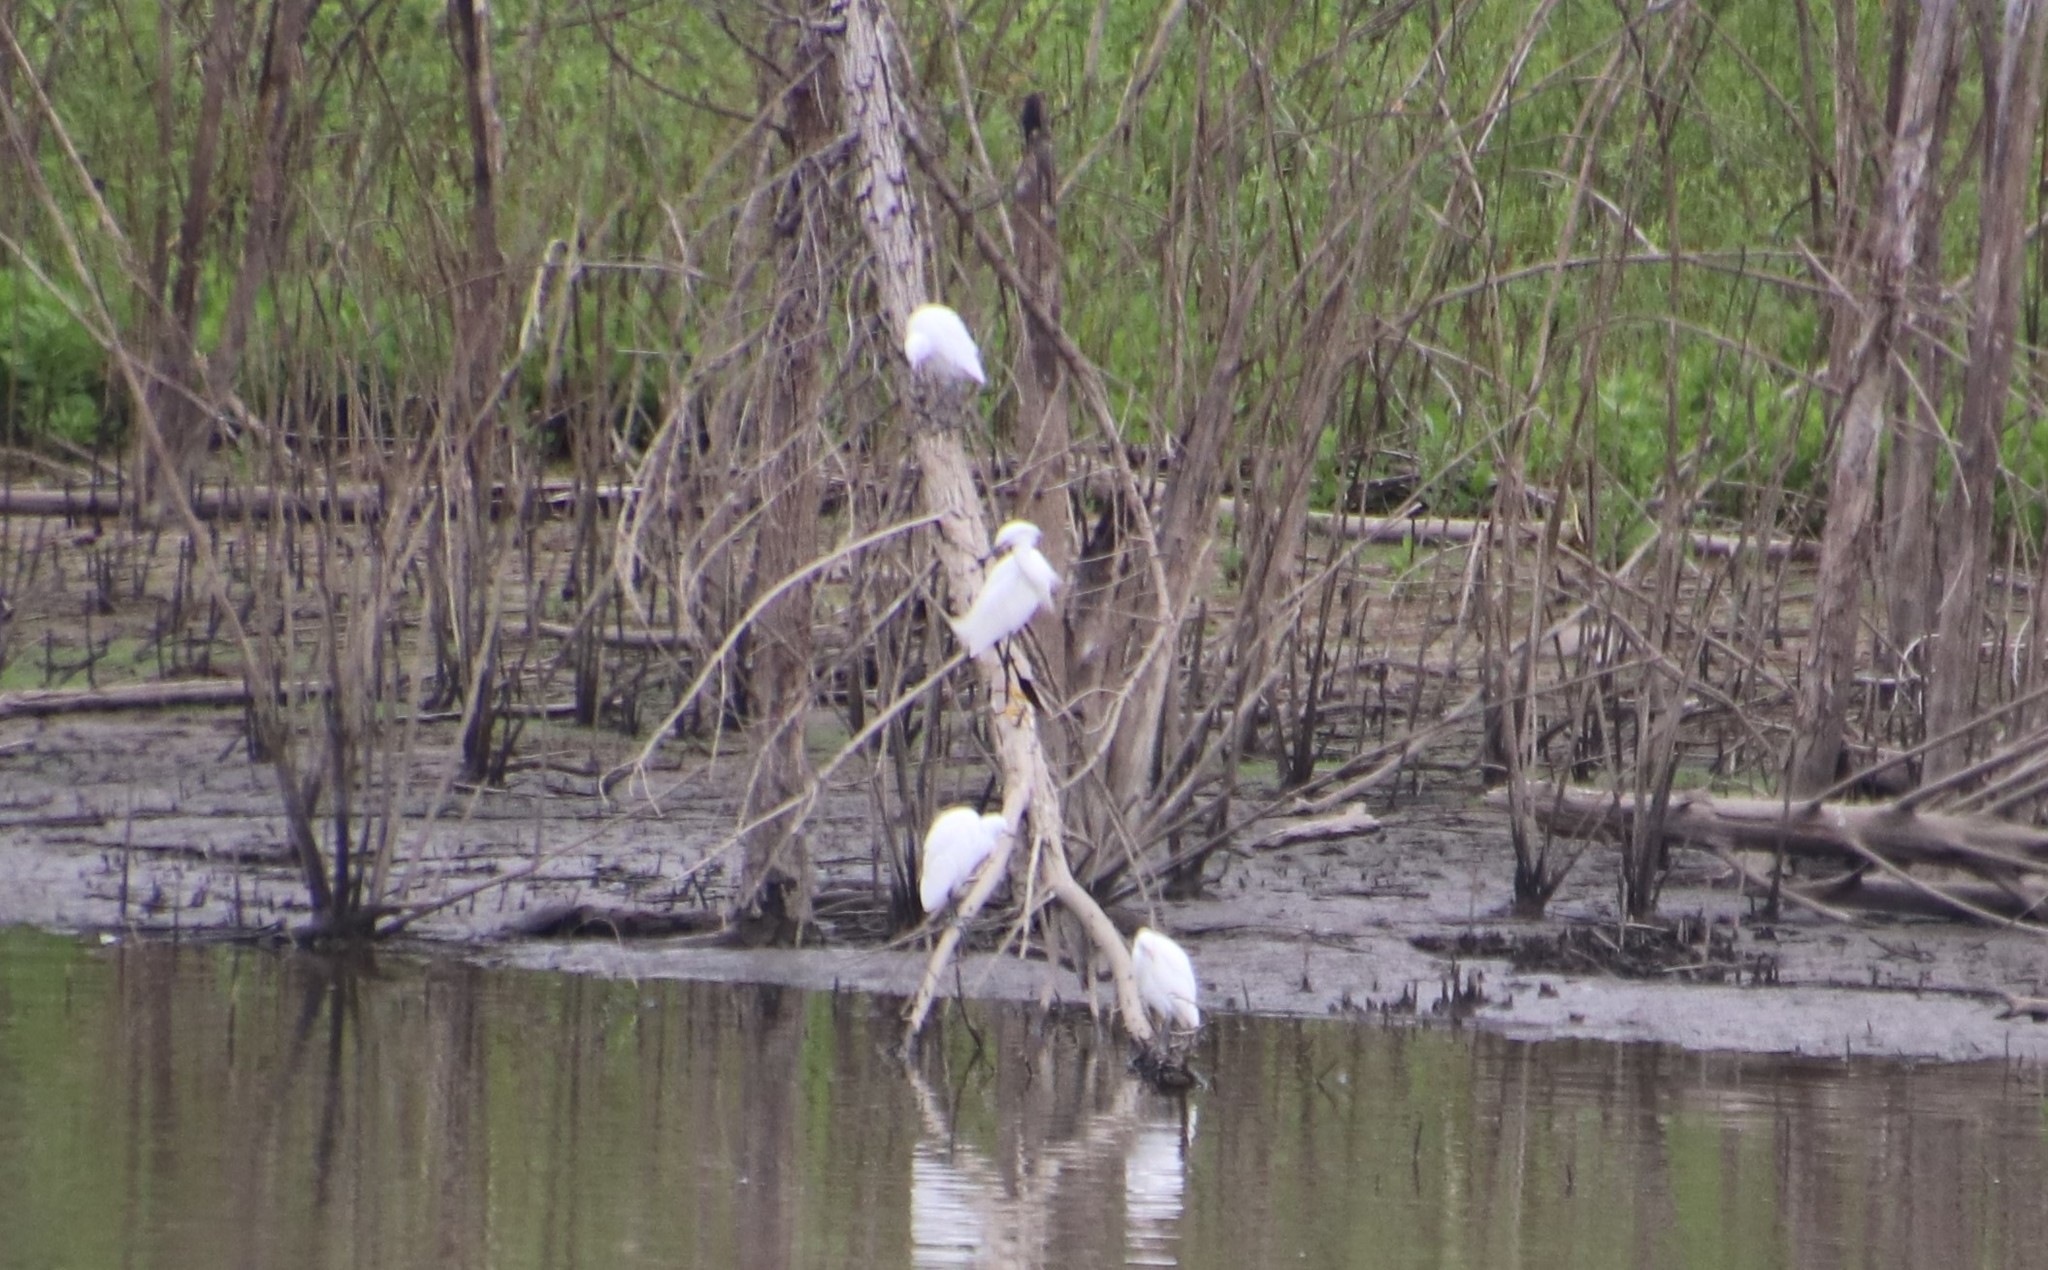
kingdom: Animalia
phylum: Chordata
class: Aves
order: Pelecaniformes
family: Ardeidae
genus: Egretta
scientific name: Egretta thula
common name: Snowy egret
